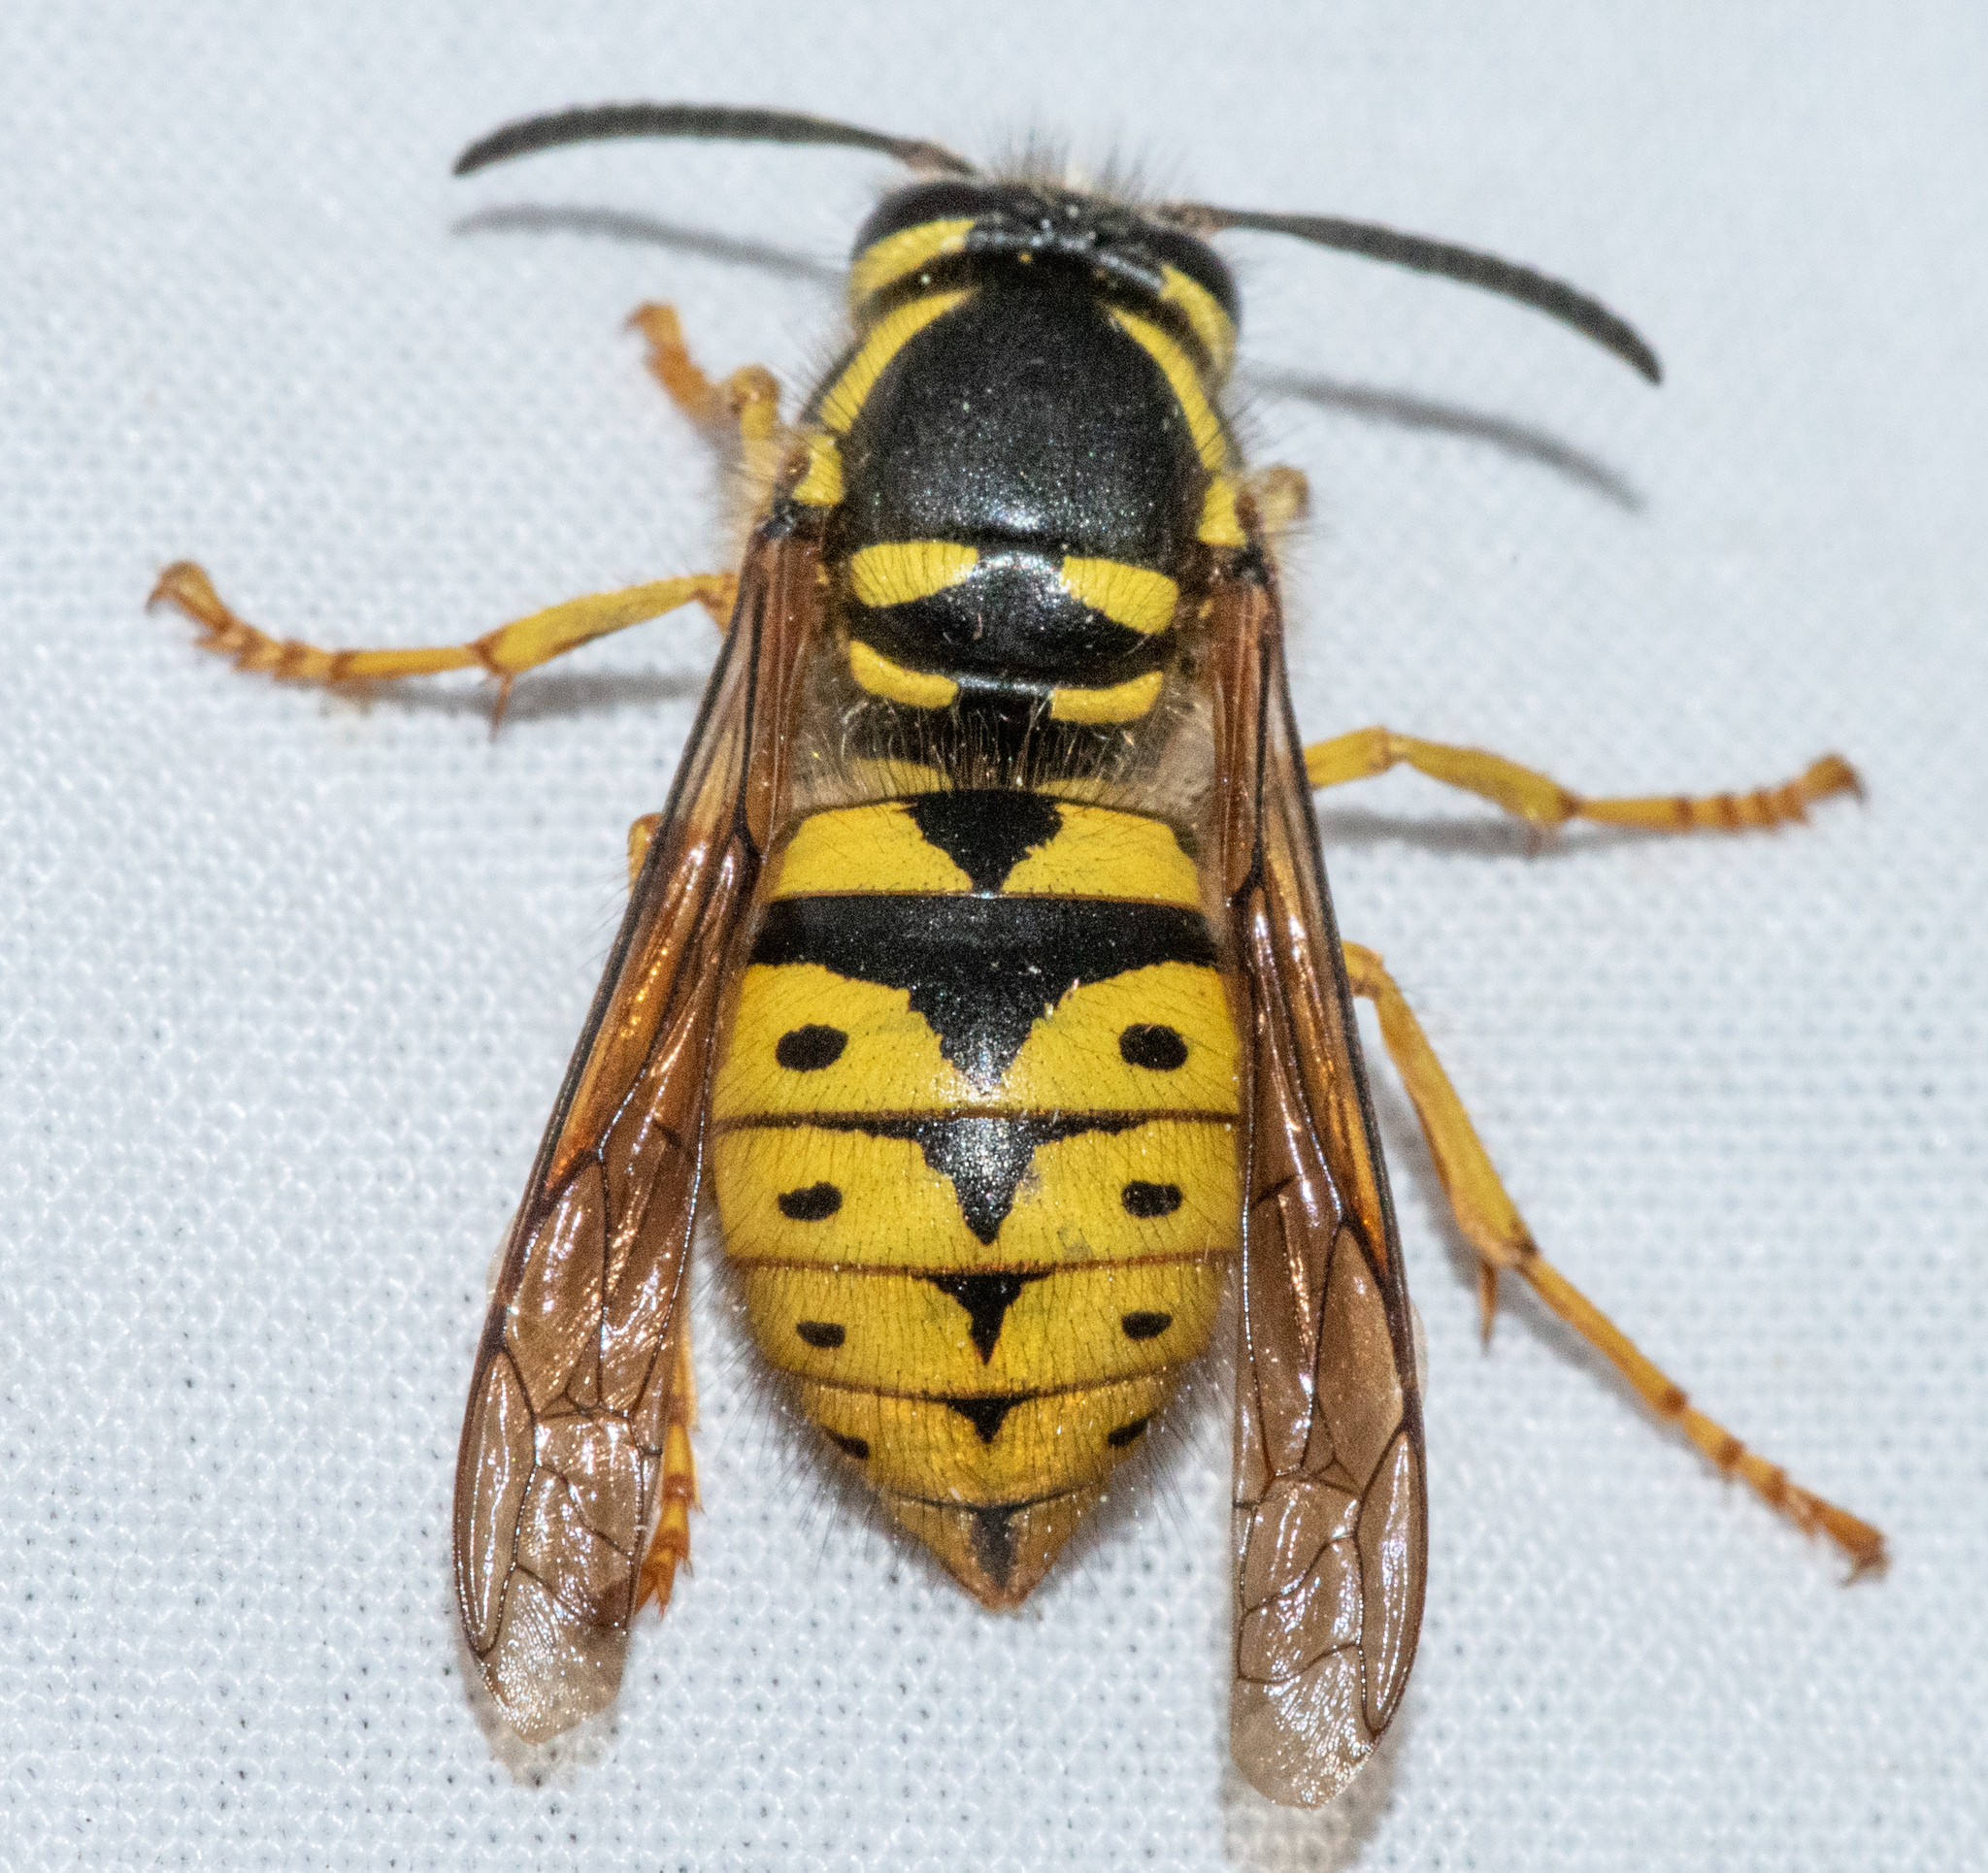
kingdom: Animalia
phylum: Arthropoda
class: Insecta
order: Hymenoptera
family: Vespidae
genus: Dolichovespula
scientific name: Dolichovespula arenaria
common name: Aerial yellowjacket
